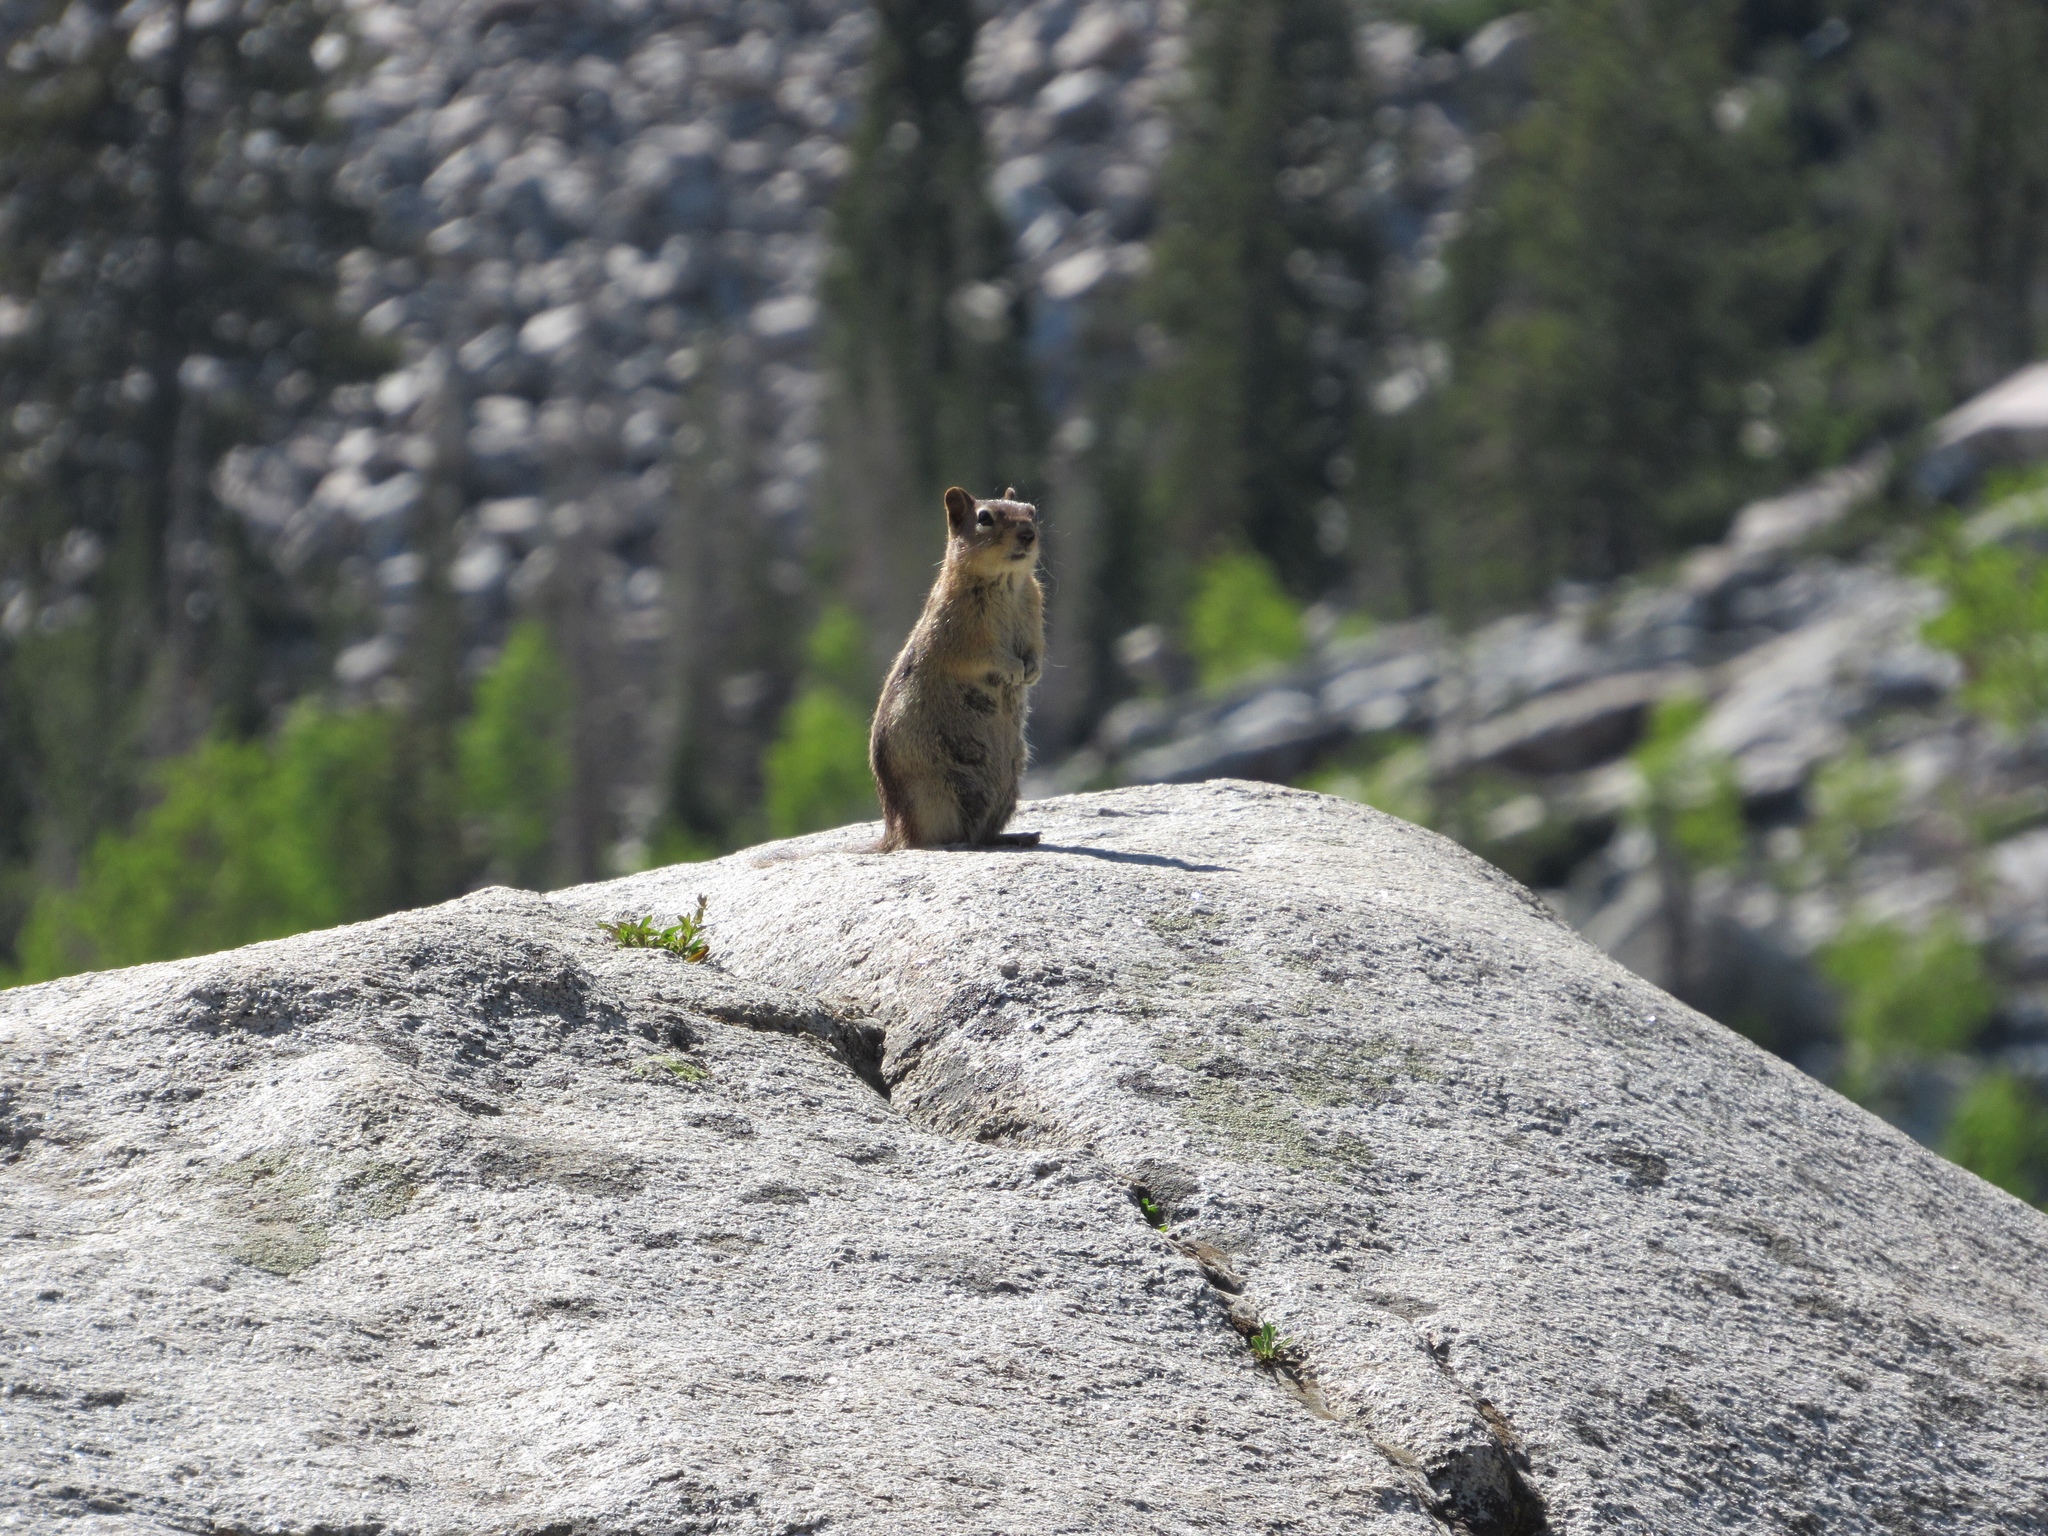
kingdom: Animalia
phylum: Chordata
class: Mammalia
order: Rodentia
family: Sciuridae
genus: Callospermophilus
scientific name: Callospermophilus lateralis
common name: Golden-mantled ground squirrel
